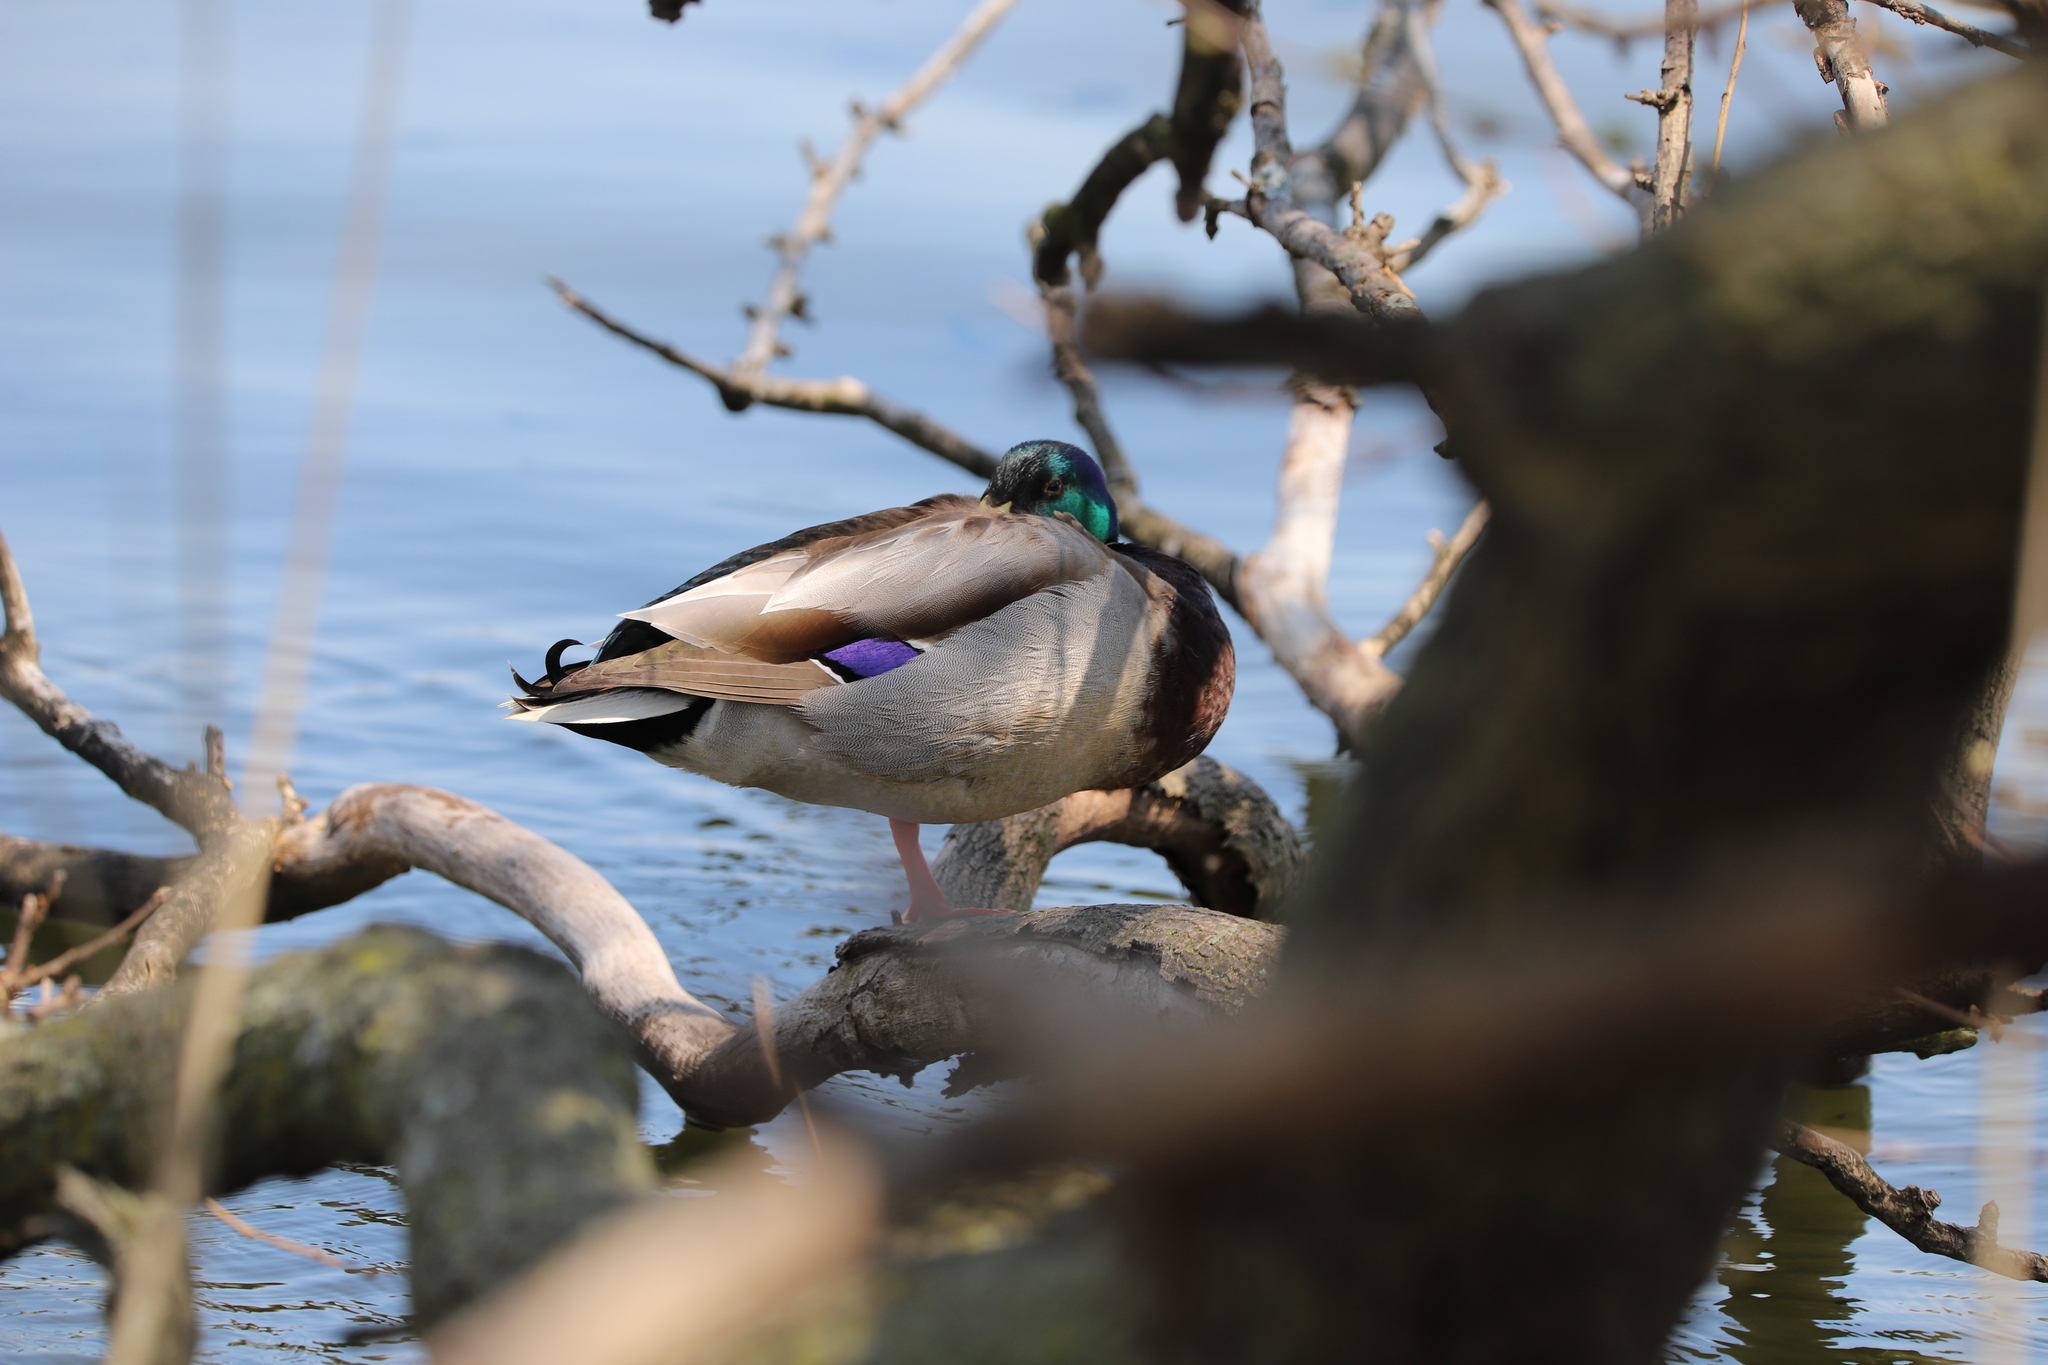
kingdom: Animalia
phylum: Chordata
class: Aves
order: Anseriformes
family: Anatidae
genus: Anas
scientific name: Anas platyrhynchos
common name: Mallard
